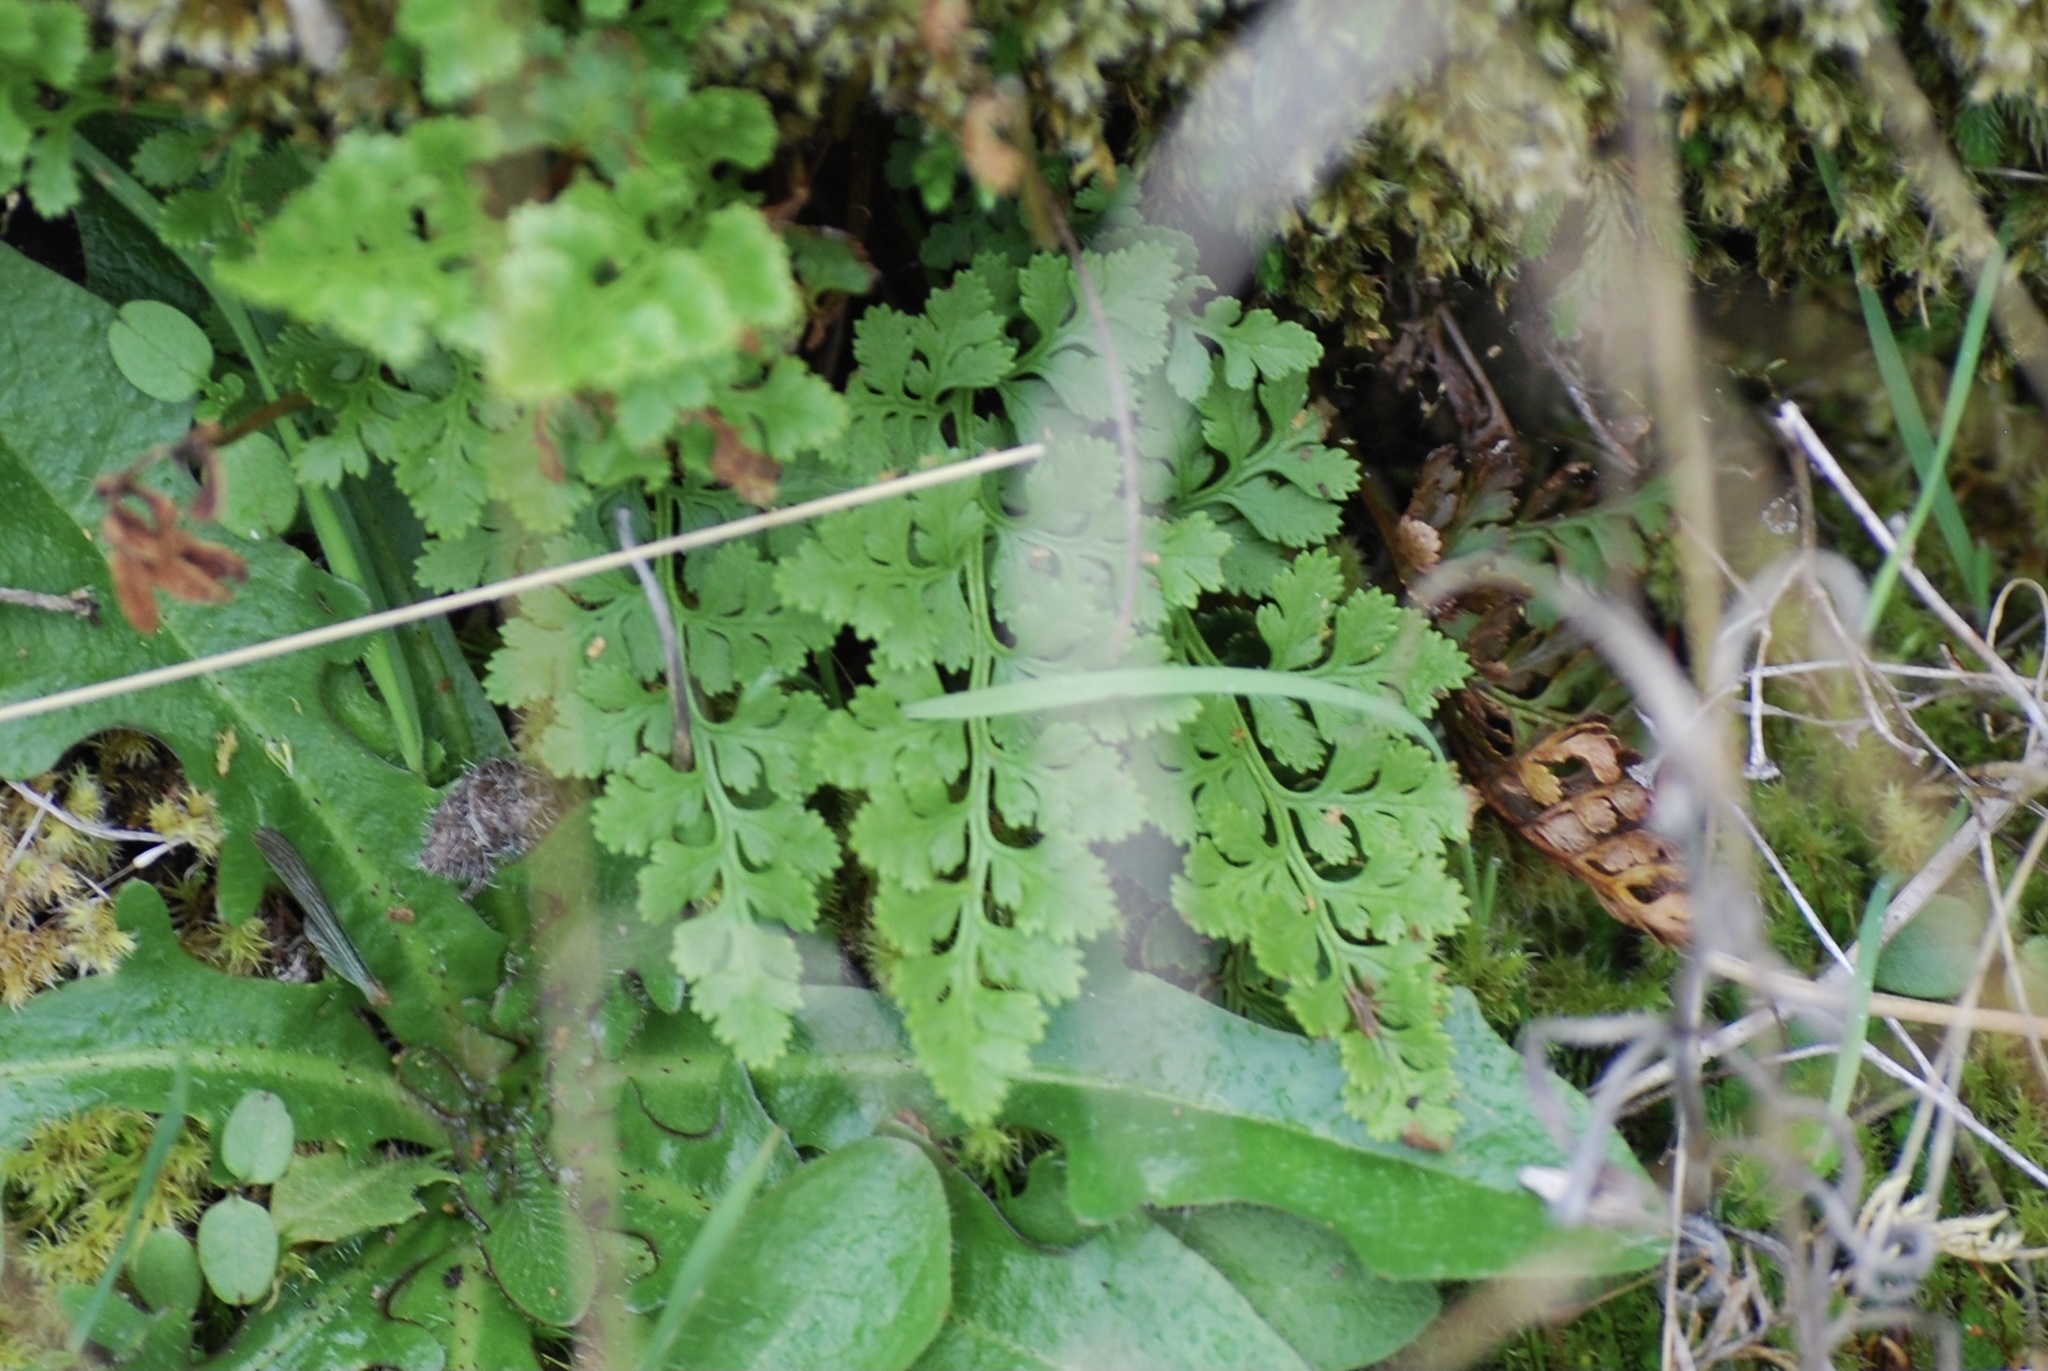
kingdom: Plantae
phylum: Tracheophyta
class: Polypodiopsida
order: Polypodiales
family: Pteridaceae
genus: Cryptogramma
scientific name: Cryptogramma acrostichoides
